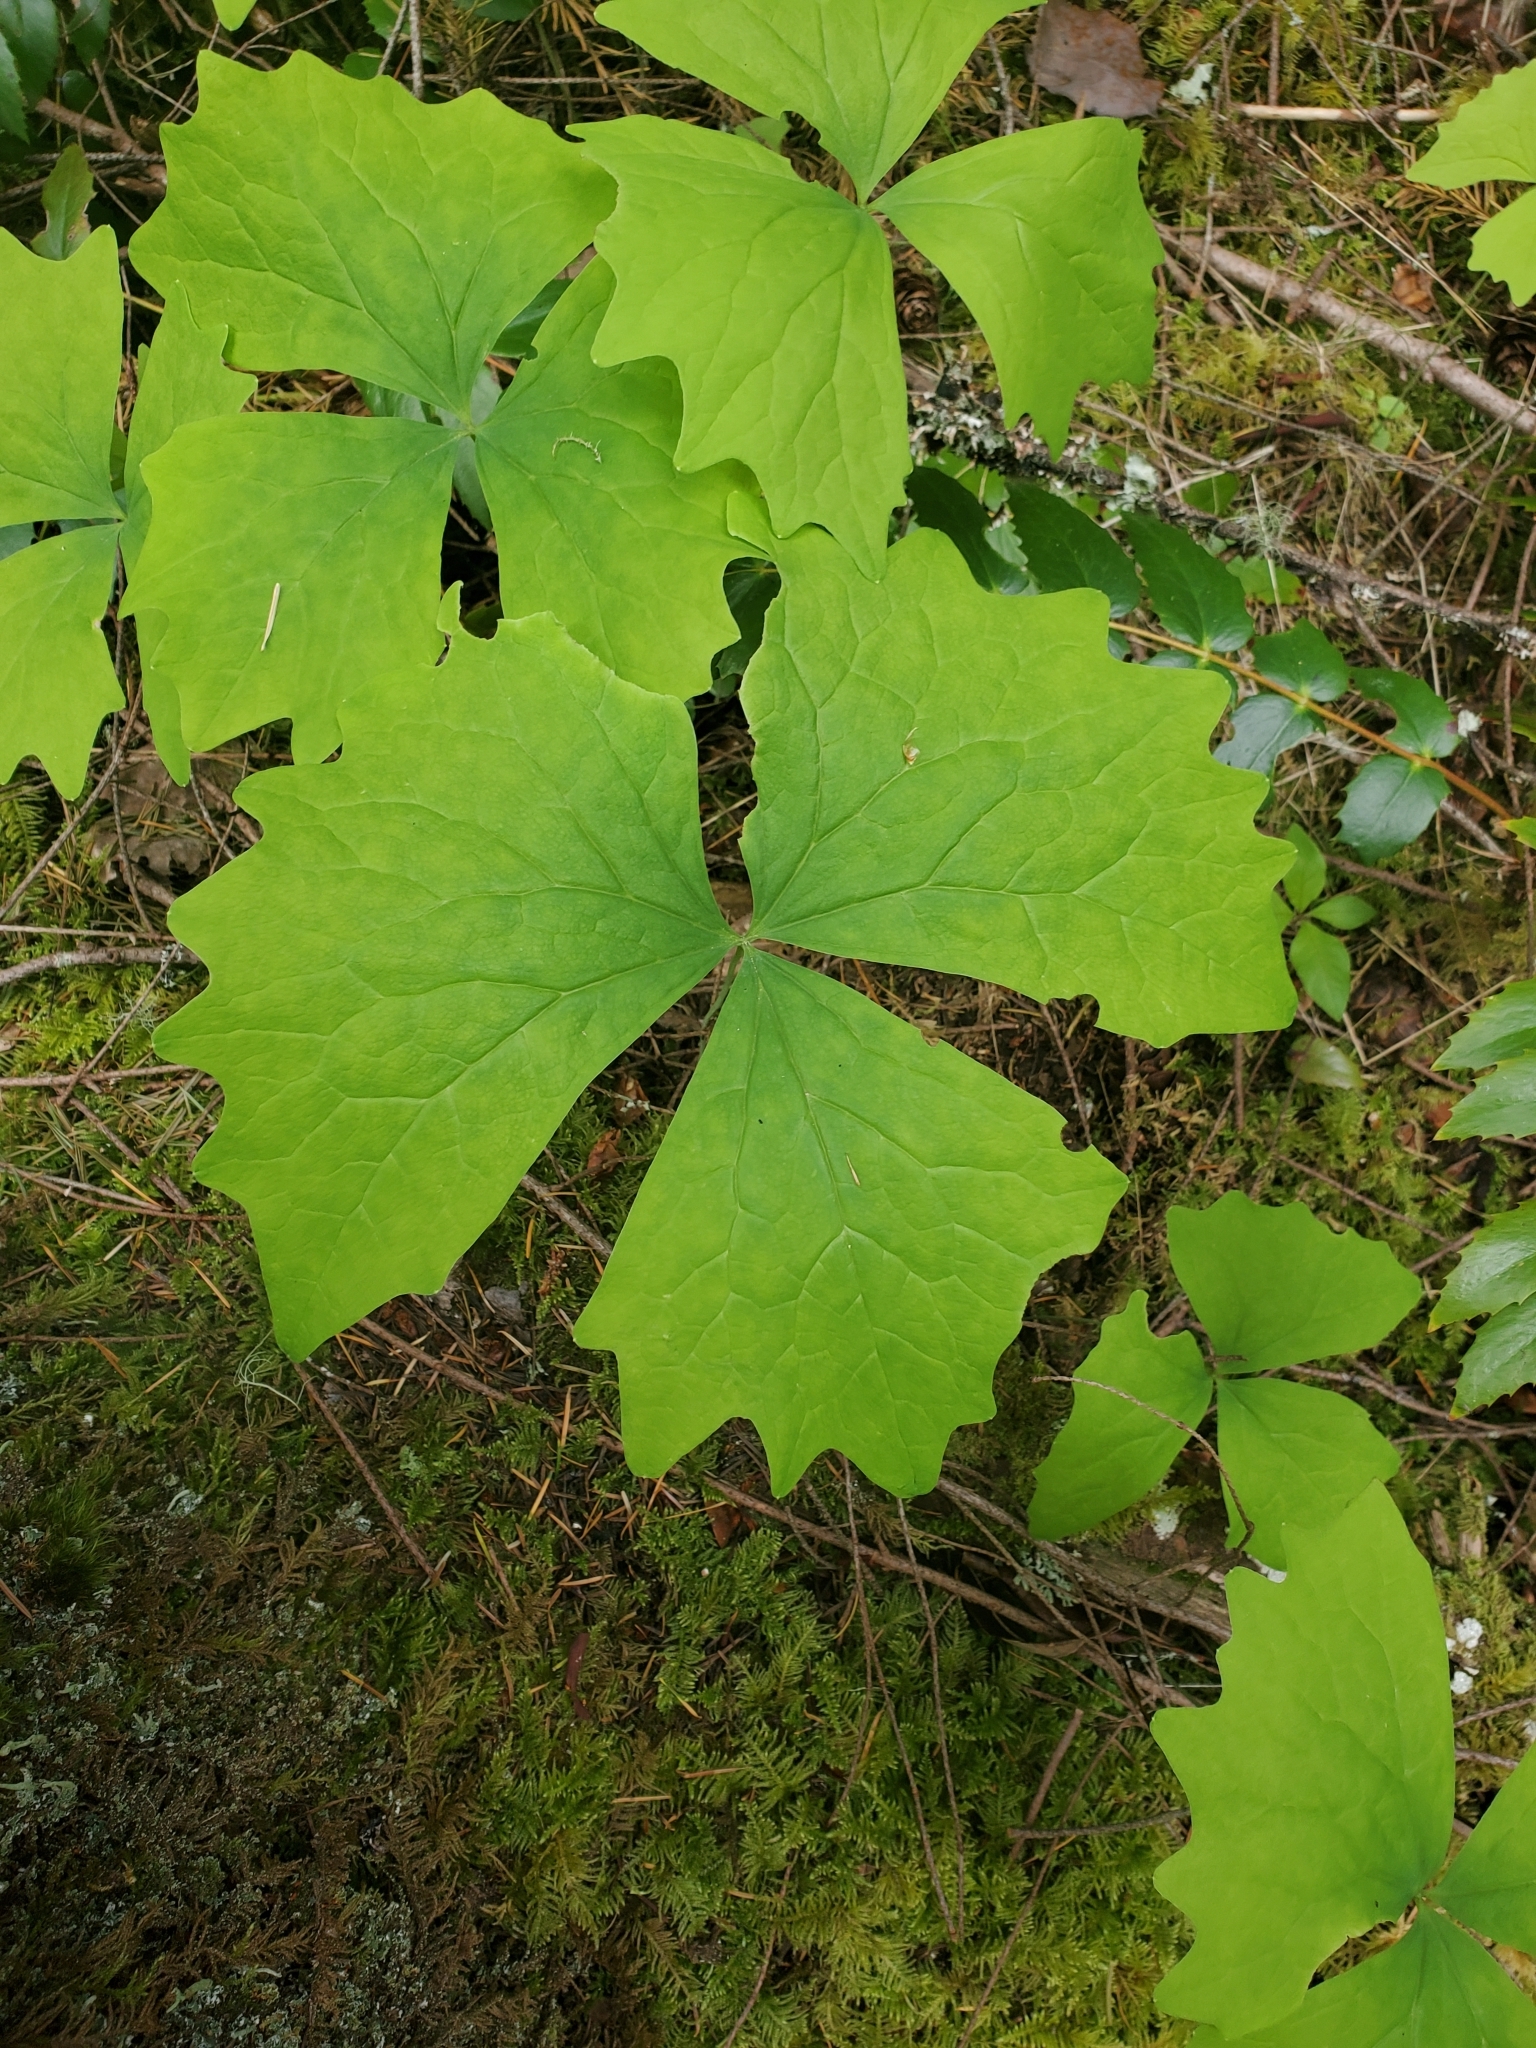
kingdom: Plantae
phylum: Tracheophyta
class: Magnoliopsida
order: Ranunculales
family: Berberidaceae
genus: Achlys
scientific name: Achlys triphylla
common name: Vanilla-leaf
